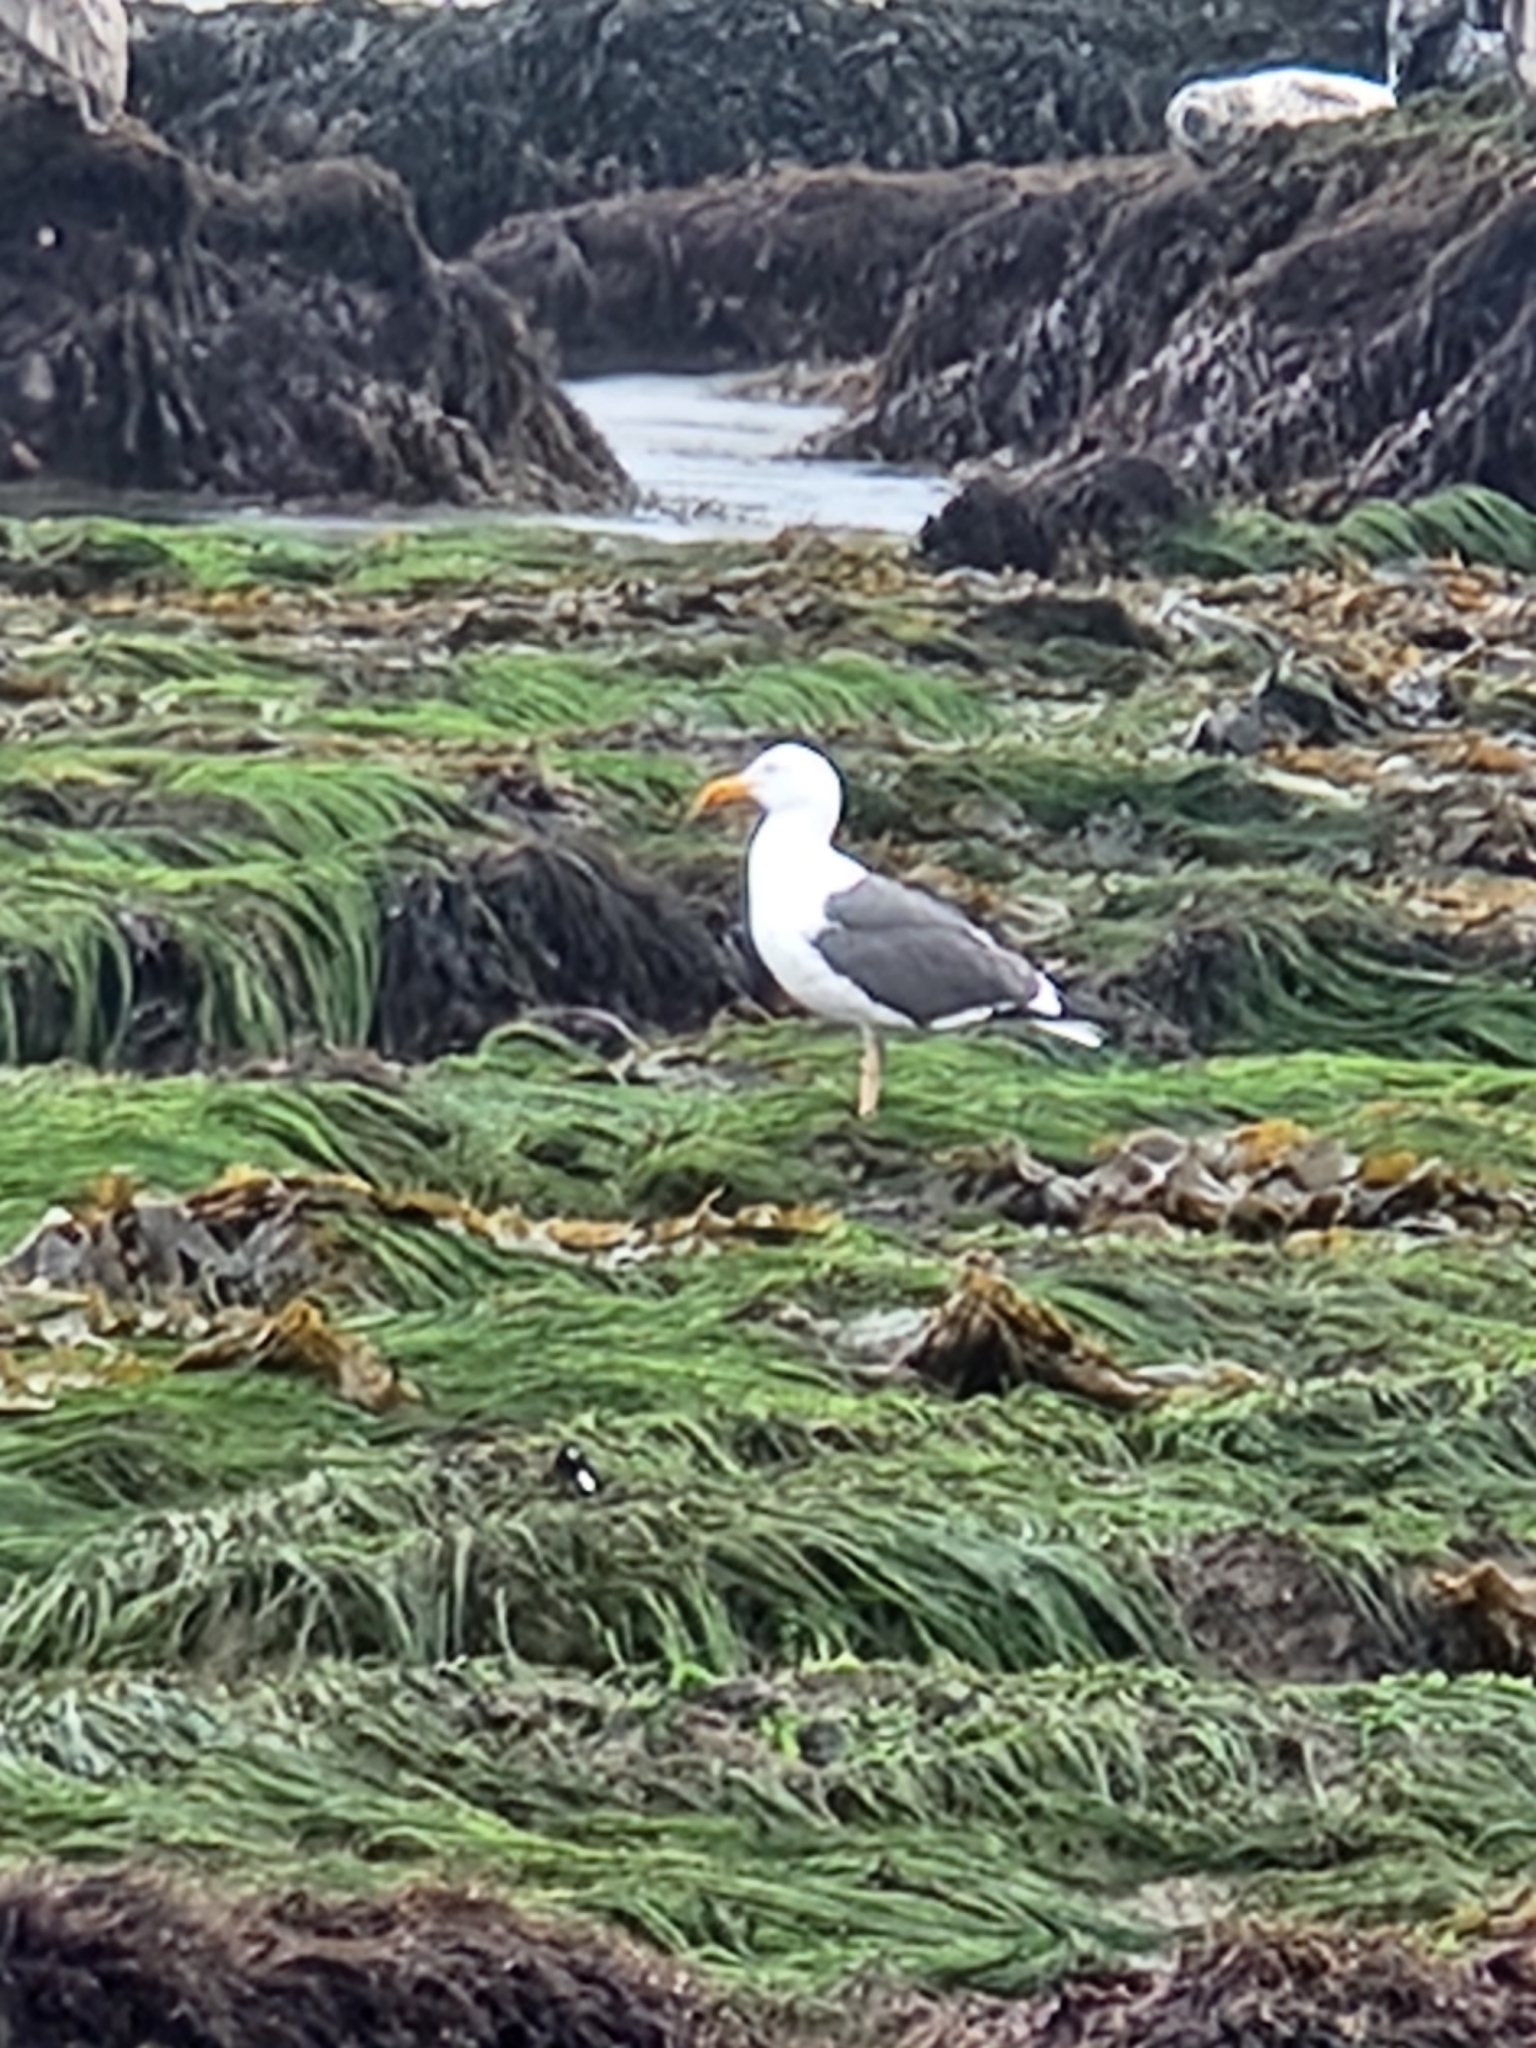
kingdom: Animalia
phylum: Chordata
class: Aves
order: Charadriiformes
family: Laridae
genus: Larus
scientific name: Larus occidentalis
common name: Western gull
